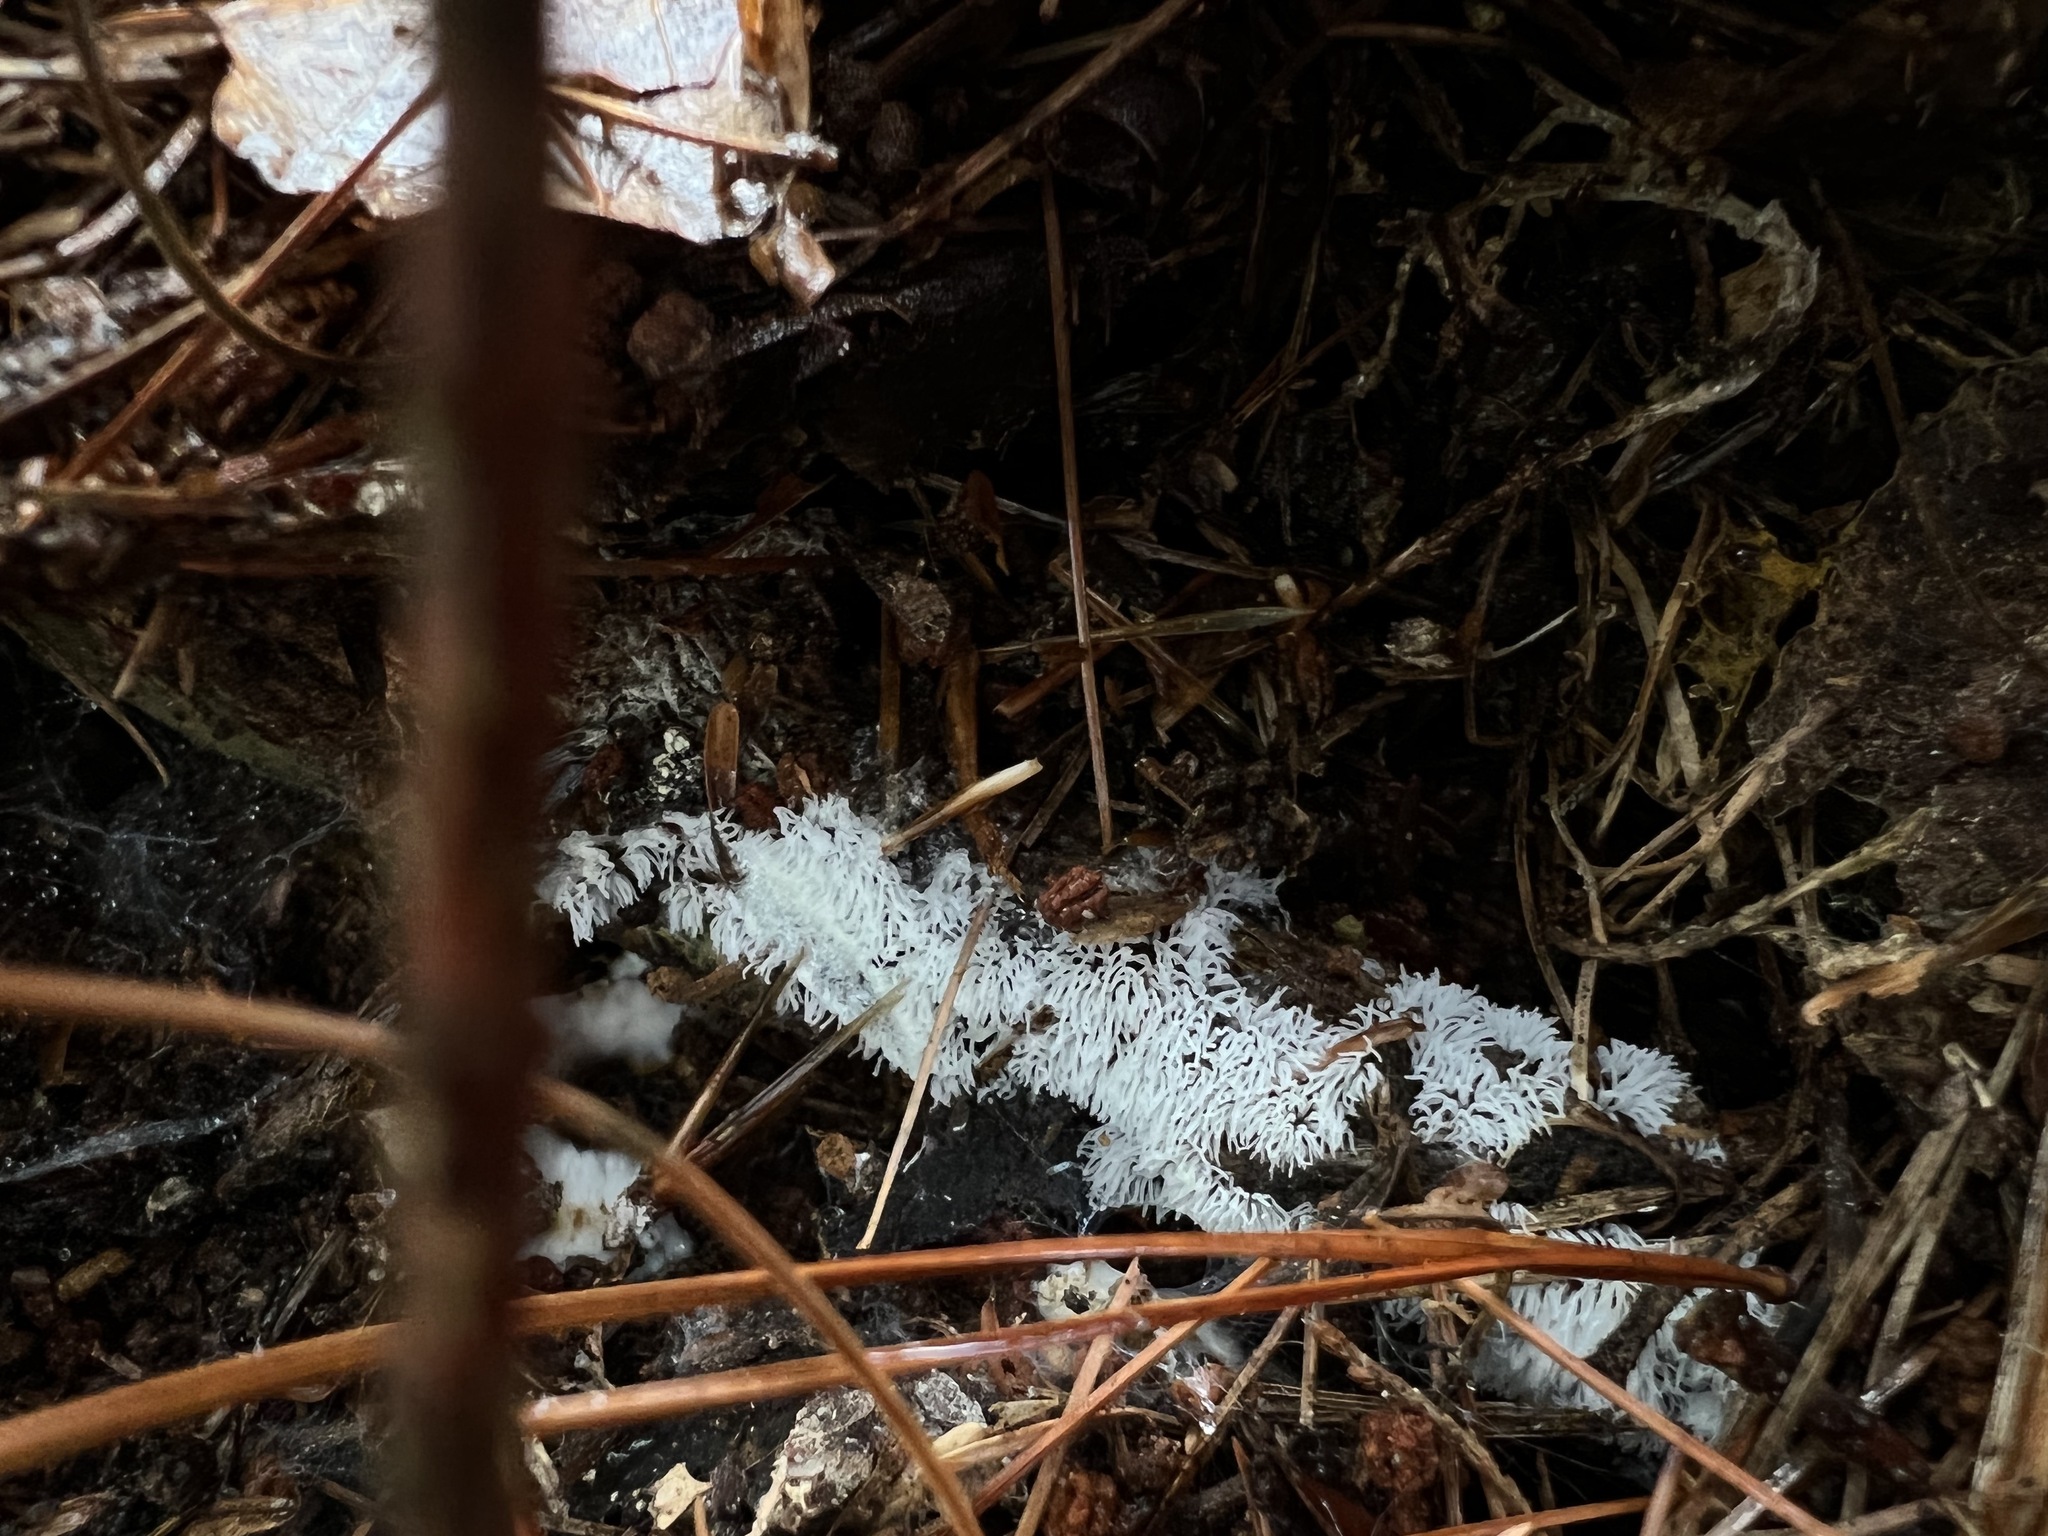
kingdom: Protozoa
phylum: Mycetozoa
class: Protosteliomycetes
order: Ceratiomyxales
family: Ceratiomyxaceae
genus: Ceratiomyxa
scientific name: Ceratiomyxa fruticulosa
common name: Honeycomb coral slime mold
